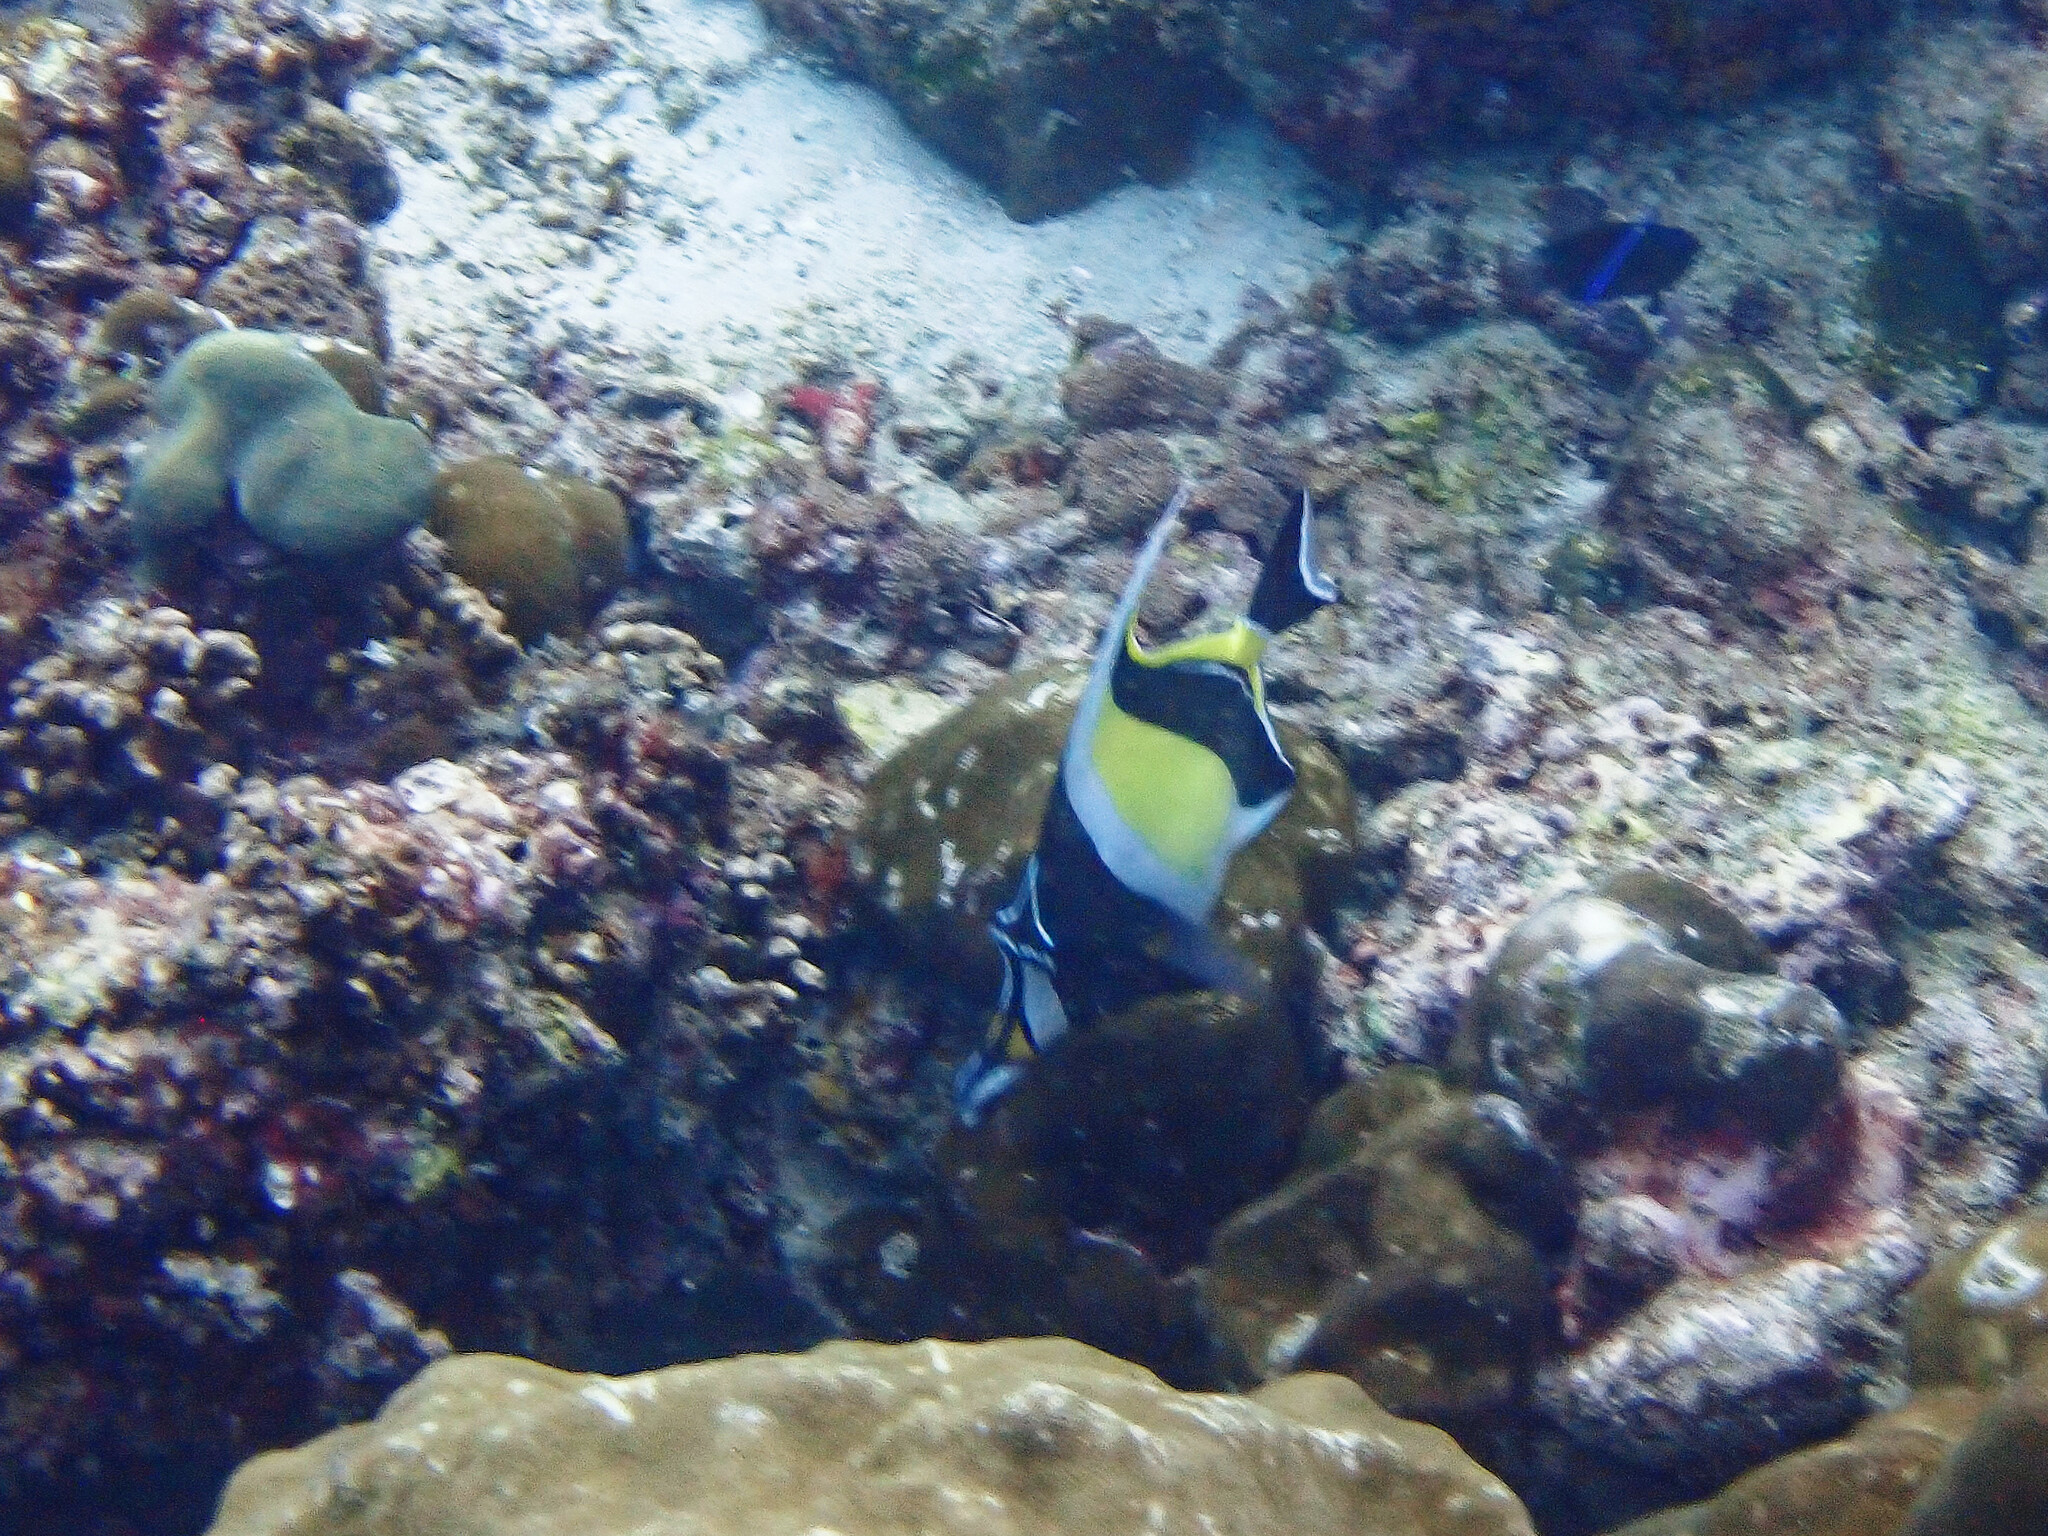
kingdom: Animalia
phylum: Chordata
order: Perciformes
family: Zanclidae
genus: Zanclus
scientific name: Zanclus cornutus
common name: Moorish idol
